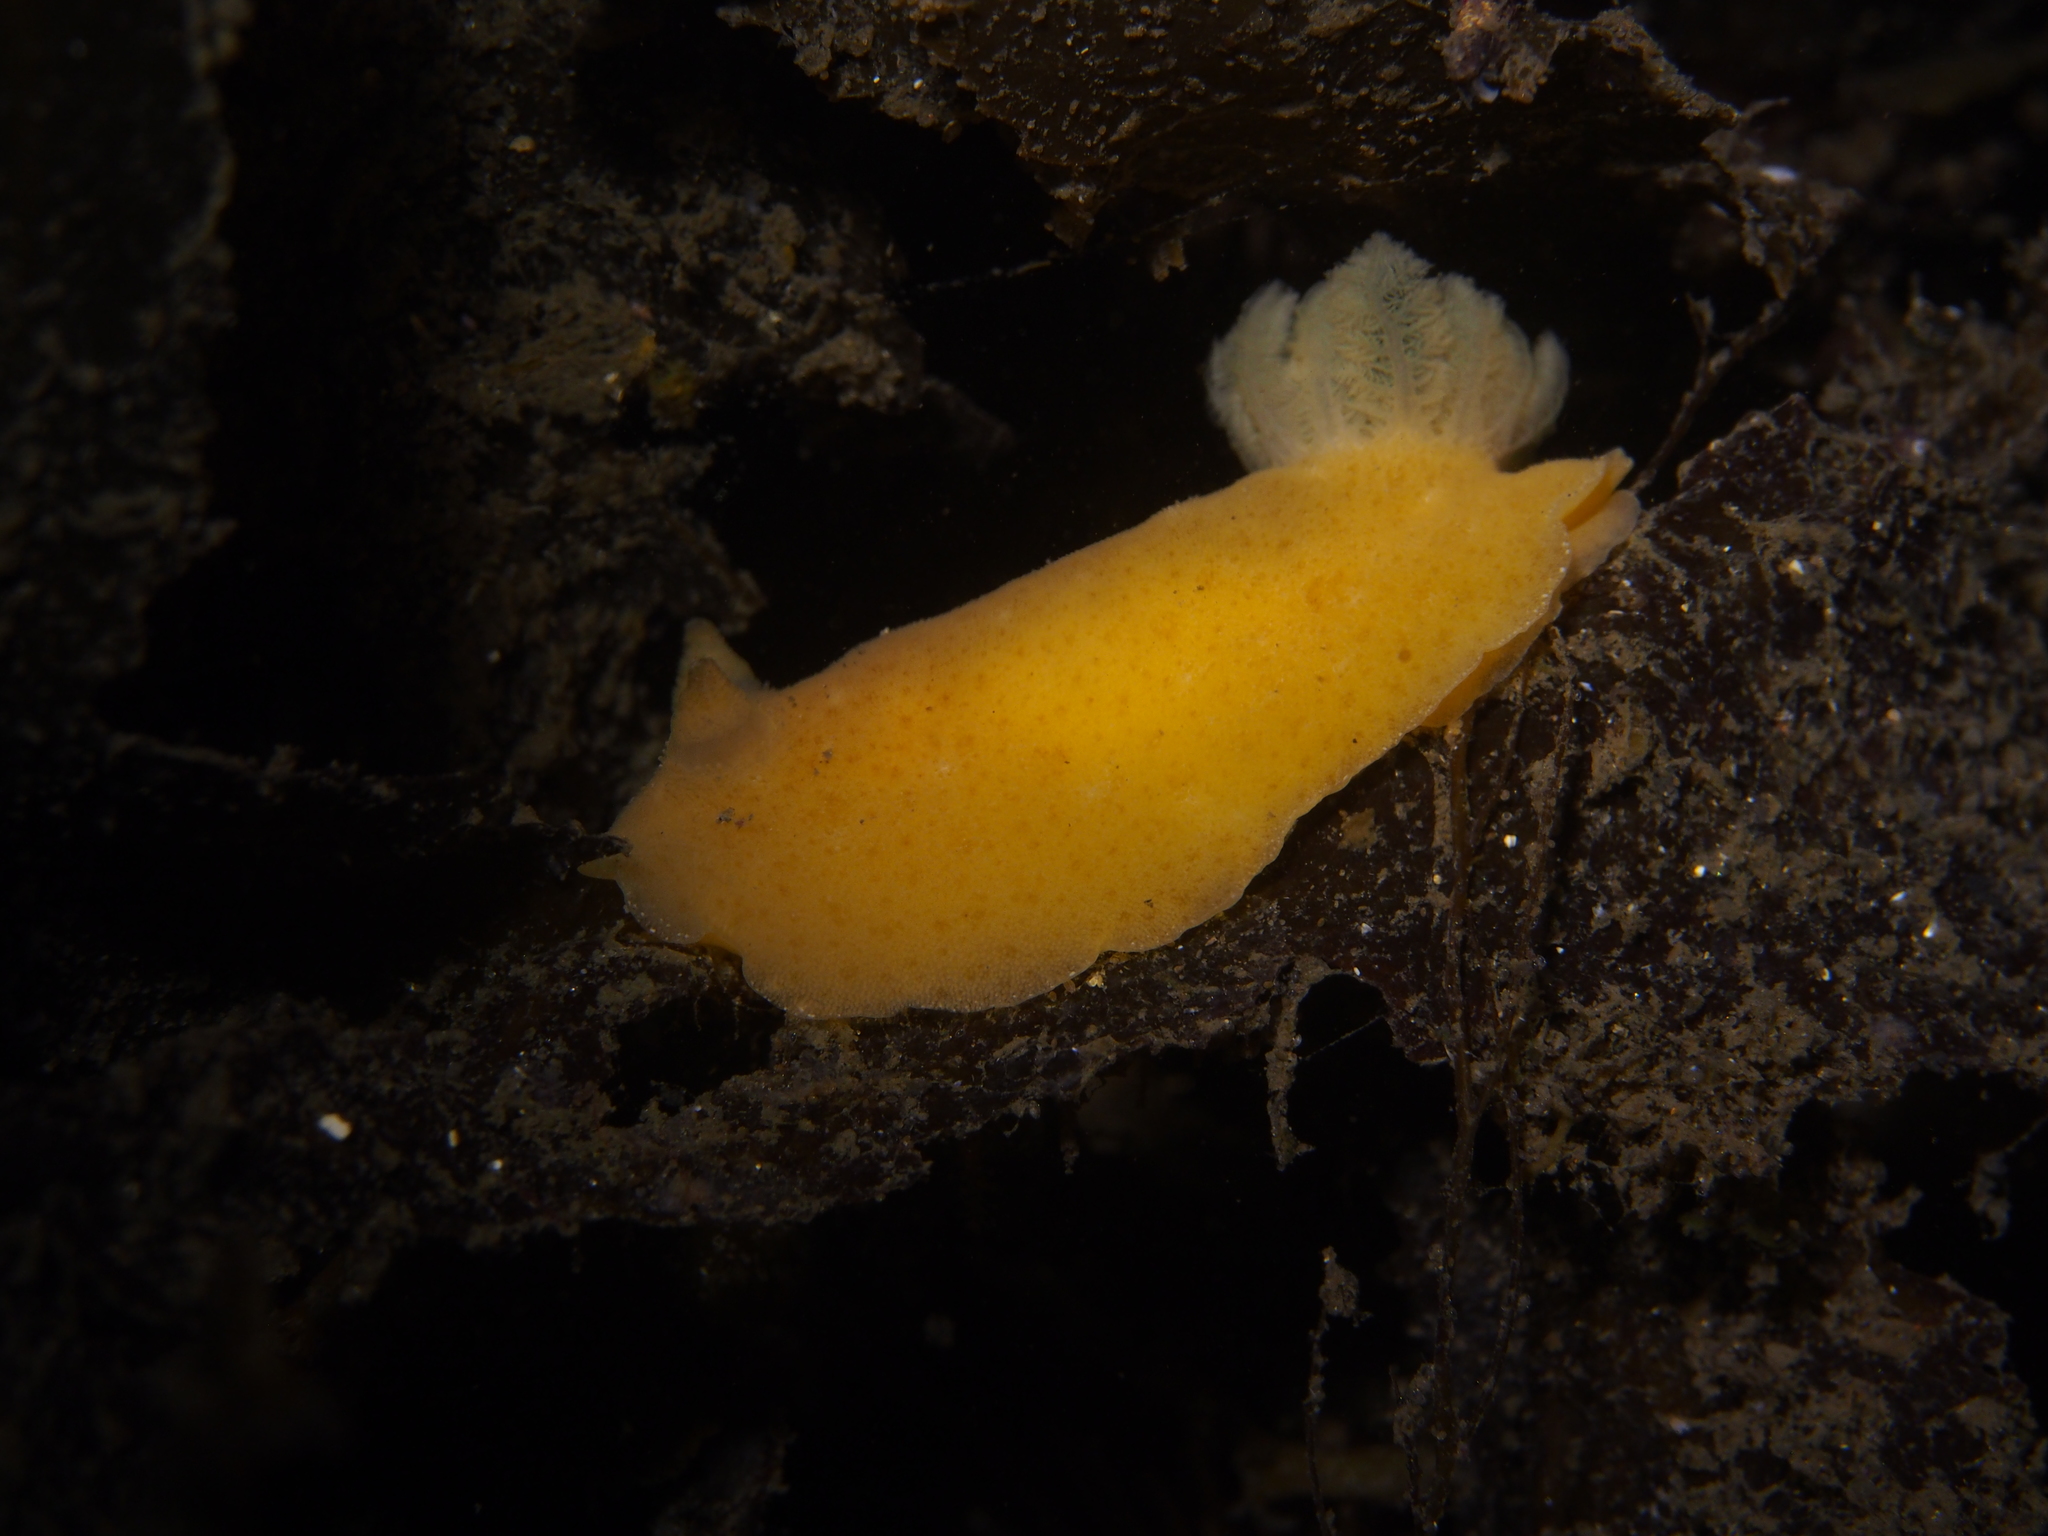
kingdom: Animalia
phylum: Mollusca
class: Gastropoda
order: Nudibranchia
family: Discodorididae
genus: Jorunna
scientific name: Jorunna tomentosa
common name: Grey sea slug
